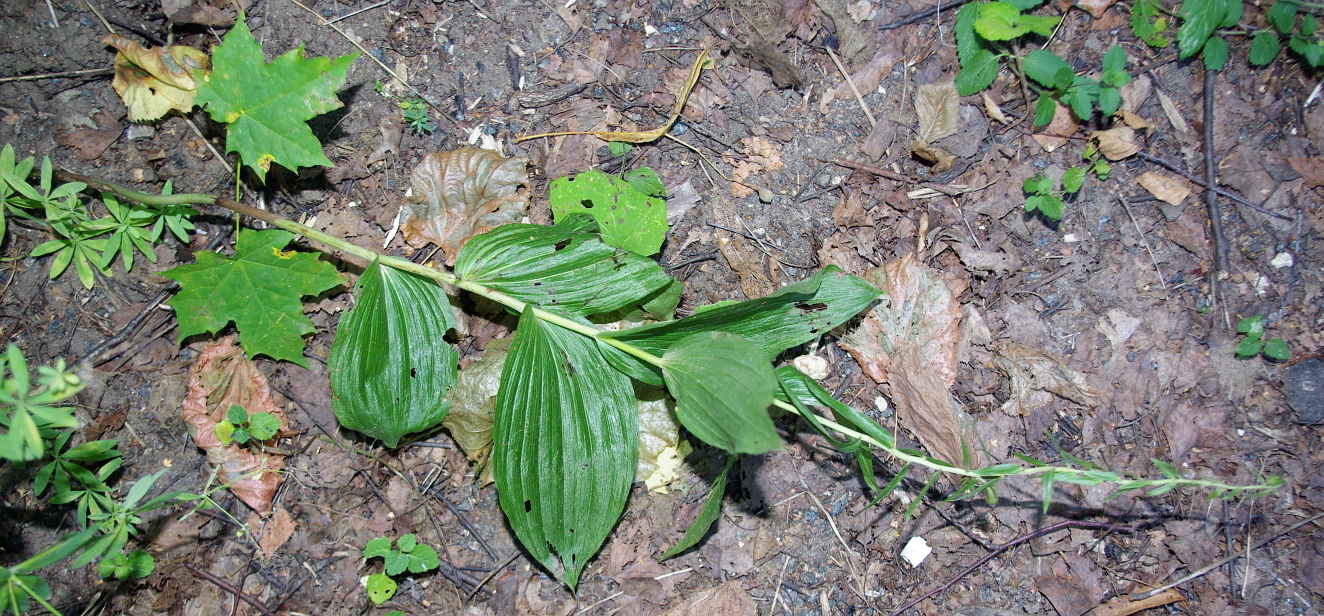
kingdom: Plantae
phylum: Tracheophyta
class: Liliopsida
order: Asparagales
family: Orchidaceae
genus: Epipactis
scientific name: Epipactis helleborine
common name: Broad-leaved helleborine
